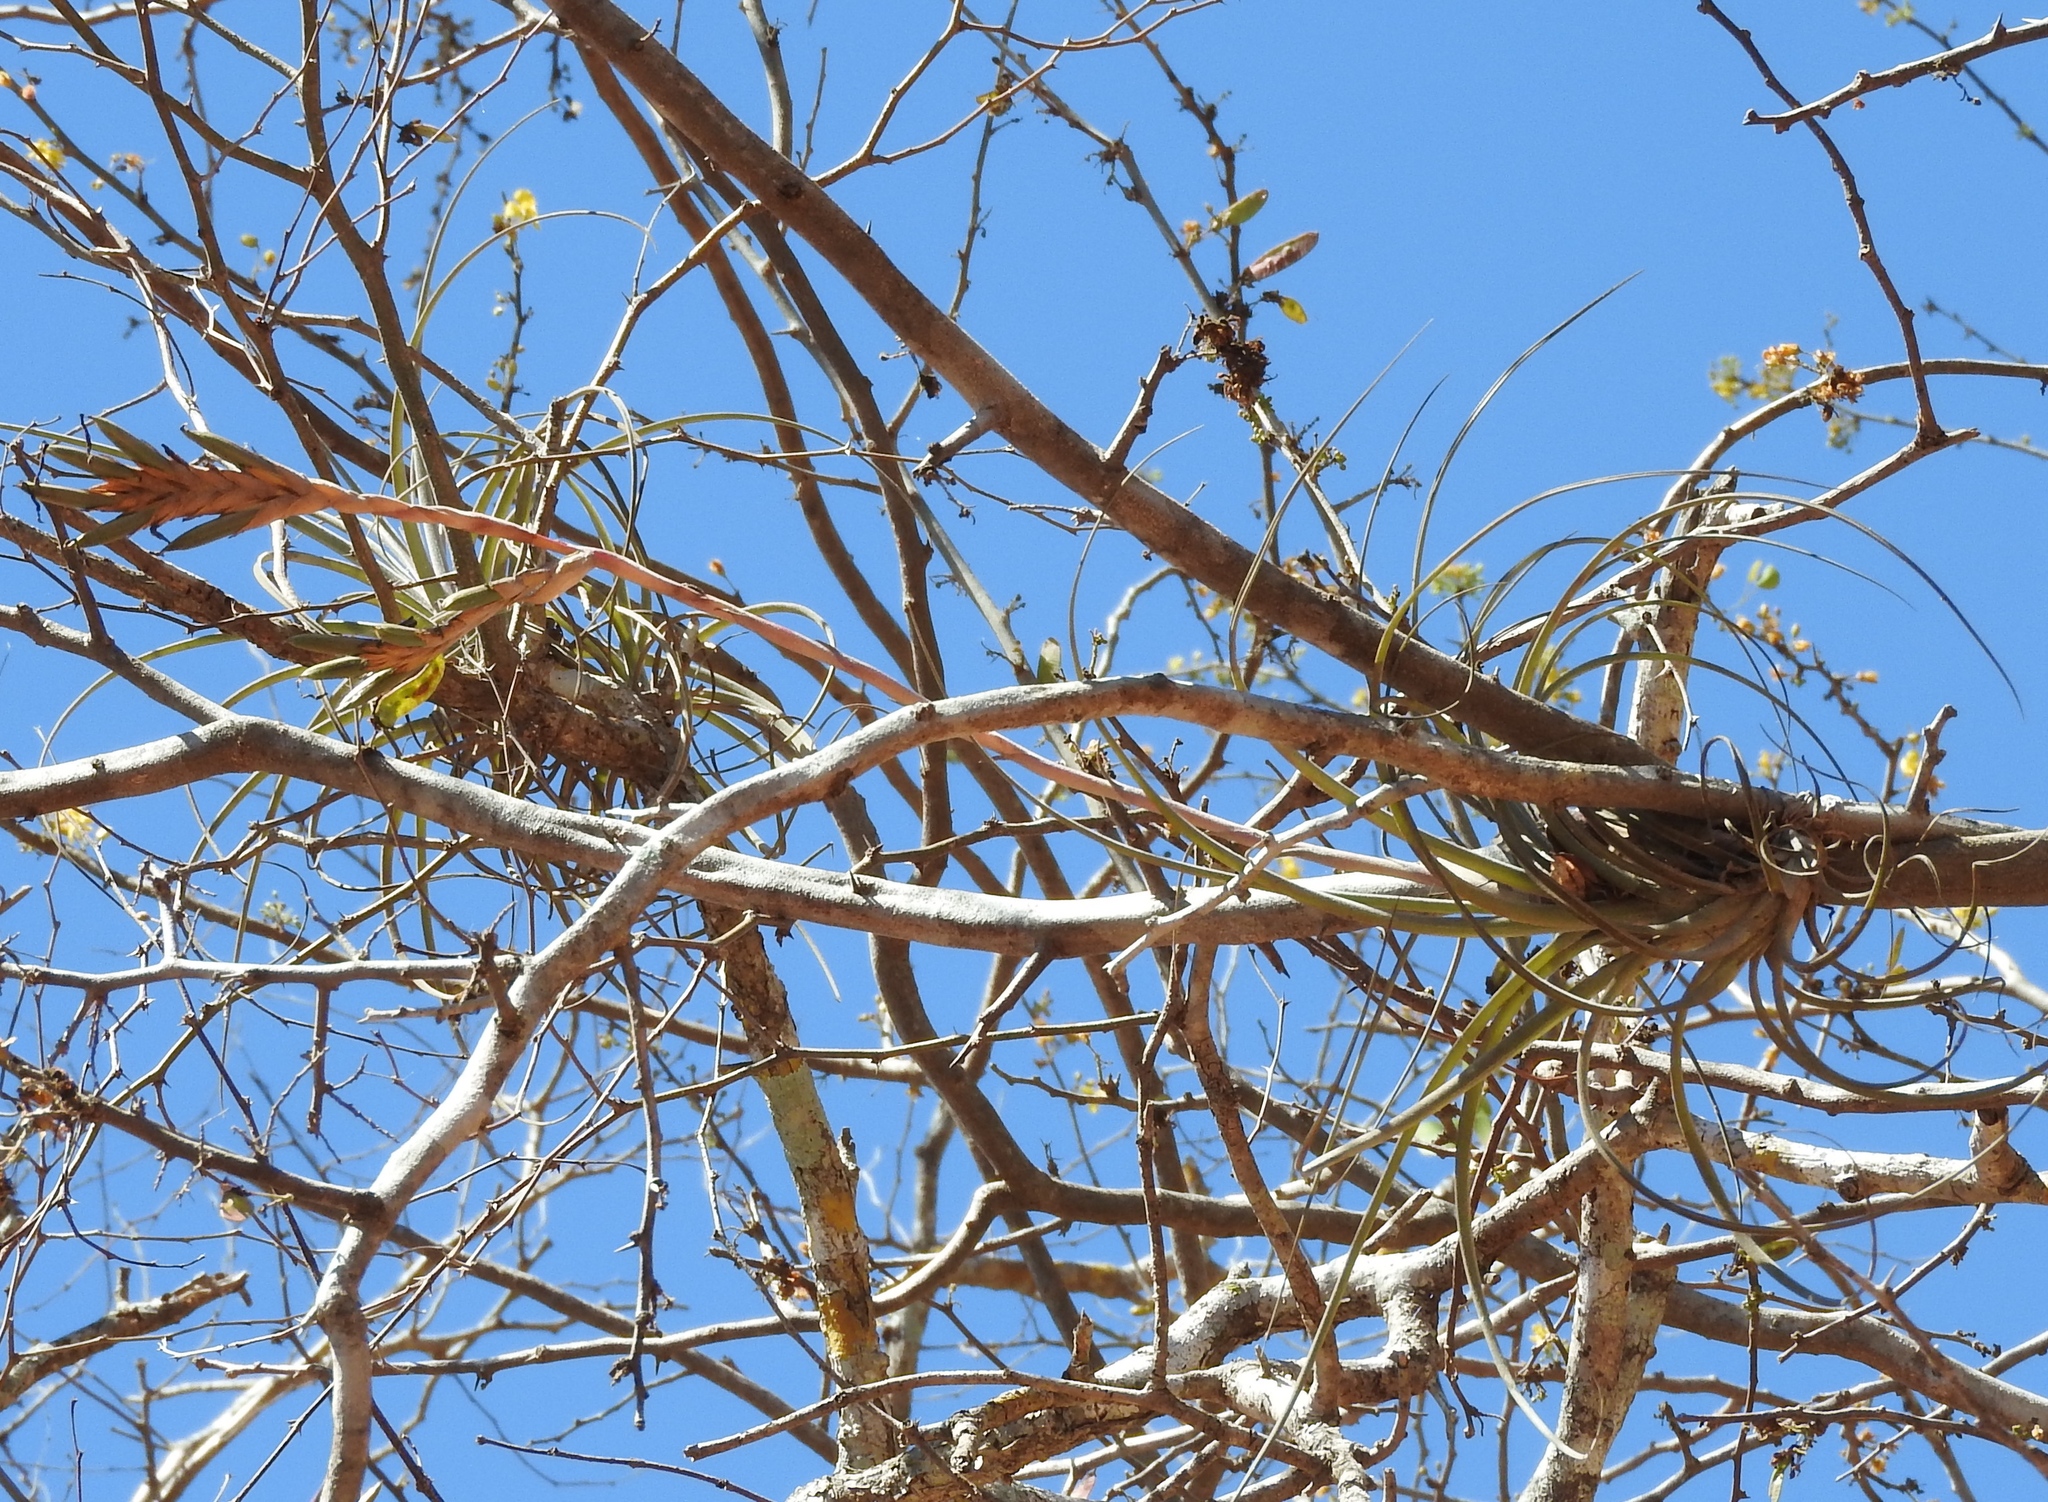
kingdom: Plantae
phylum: Tracheophyta
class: Liliopsida
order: Poales
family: Bromeliaceae
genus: Tillandsia
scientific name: Tillandsia exserta
